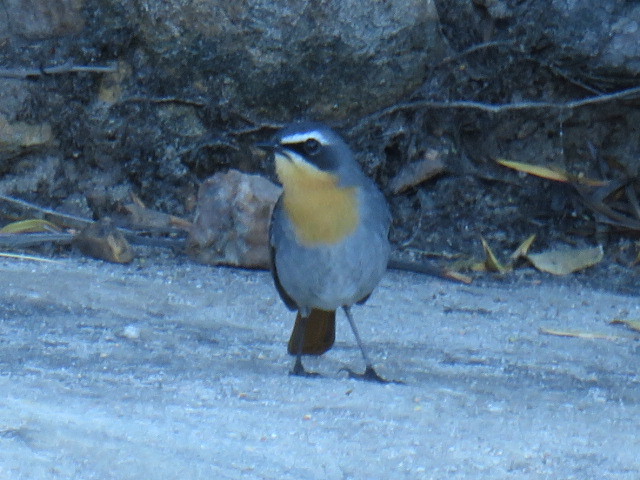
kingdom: Animalia
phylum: Chordata
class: Aves
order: Passeriformes
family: Muscicapidae
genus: Cossypha
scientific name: Cossypha caffra
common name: Cape robin-chat
